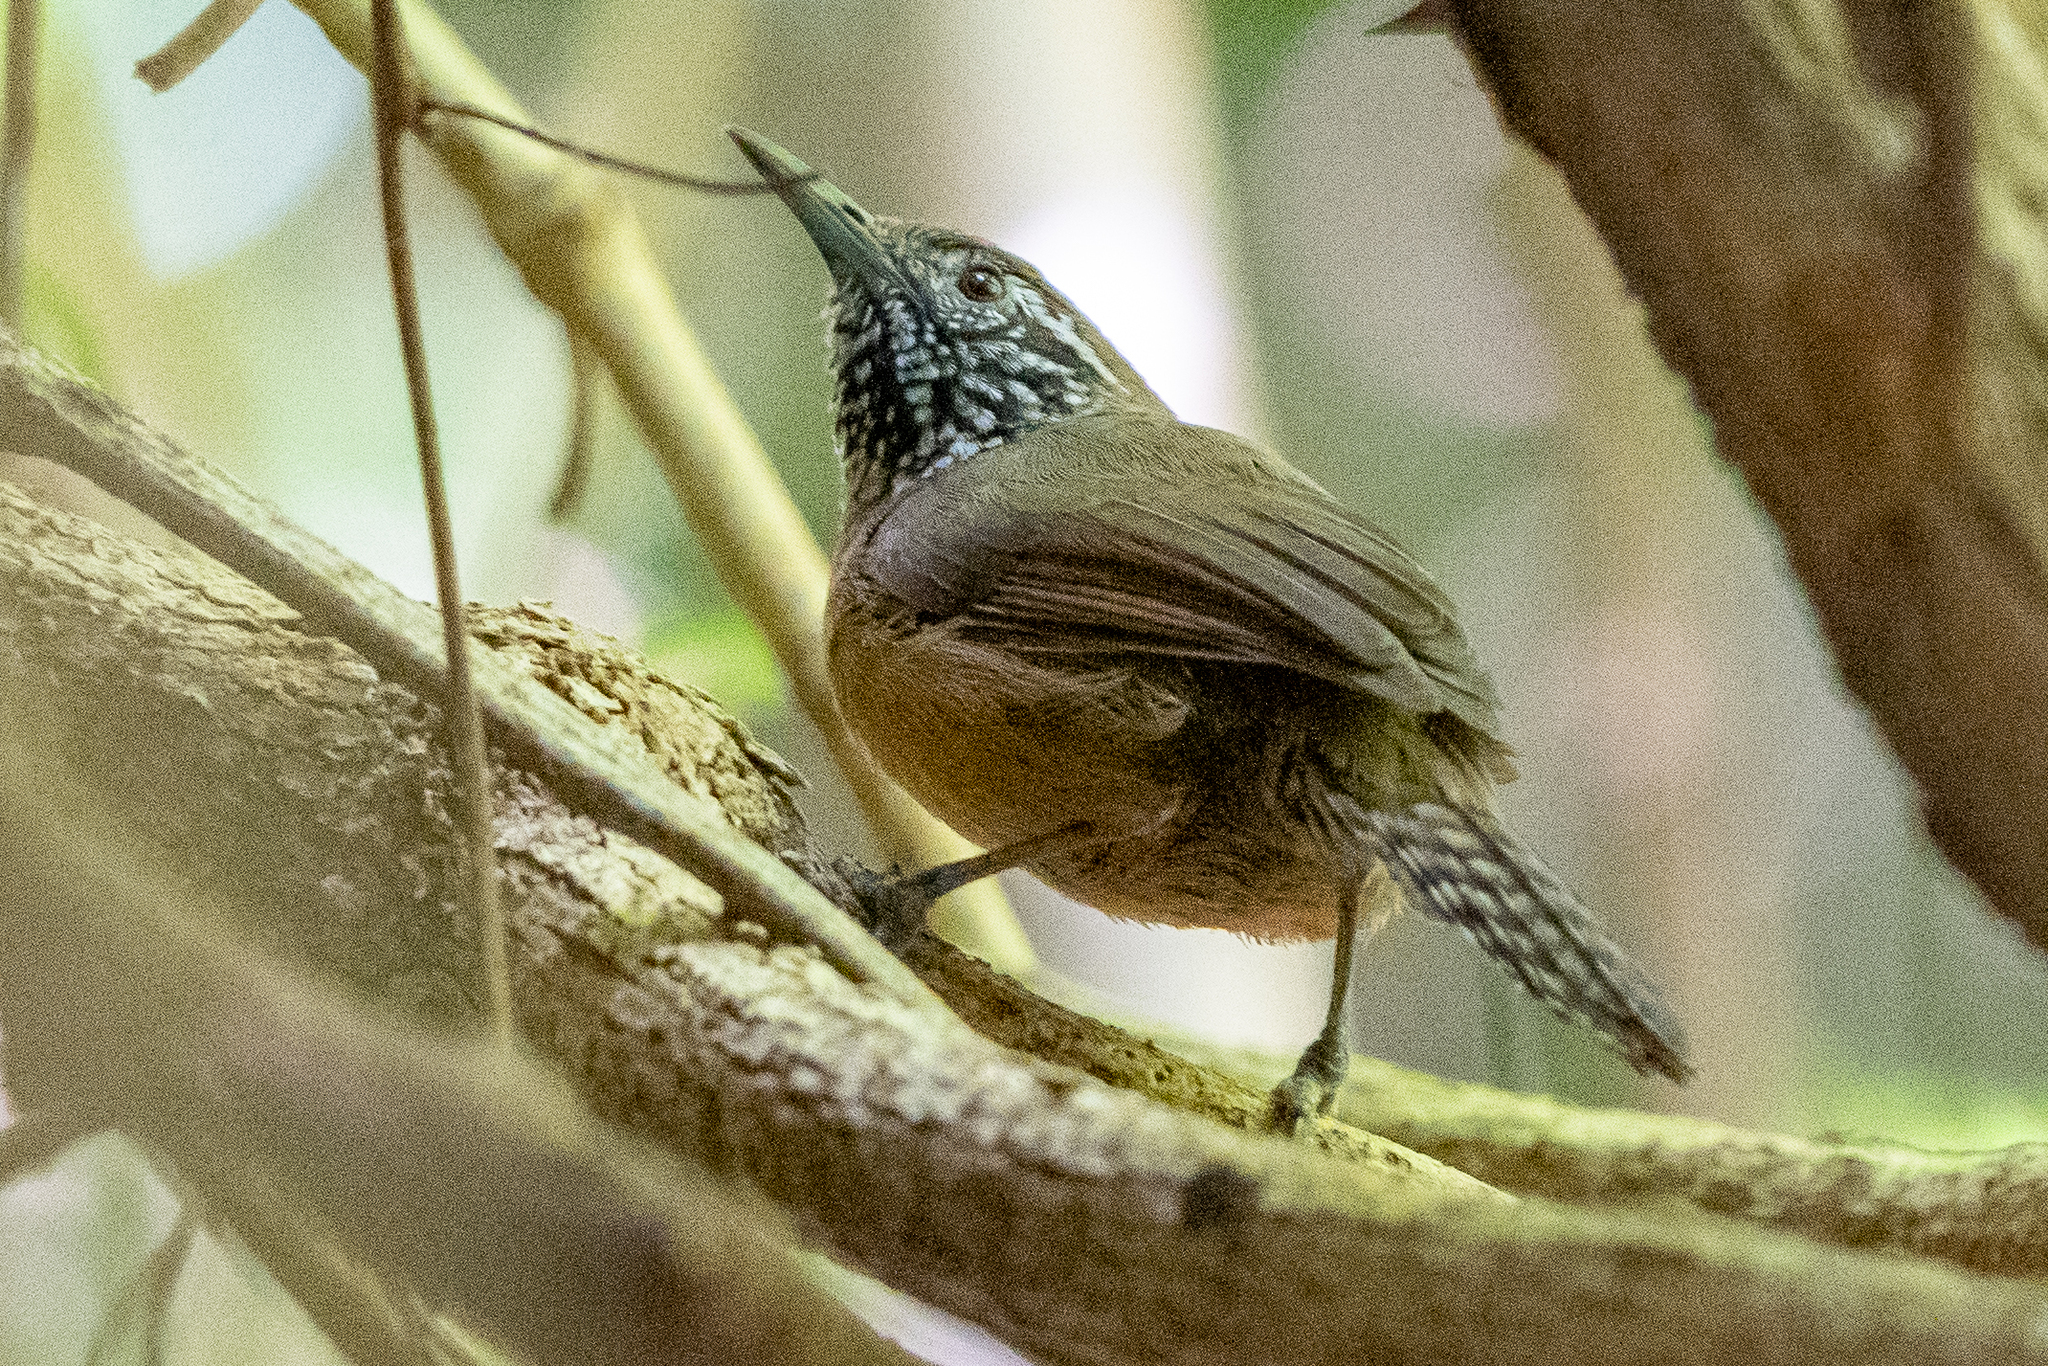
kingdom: Animalia
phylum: Chordata
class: Aves
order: Passeriformes
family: Troglodytidae
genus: Pheugopedius
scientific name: Pheugopedius rutilus
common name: Rufous-breasted wren
